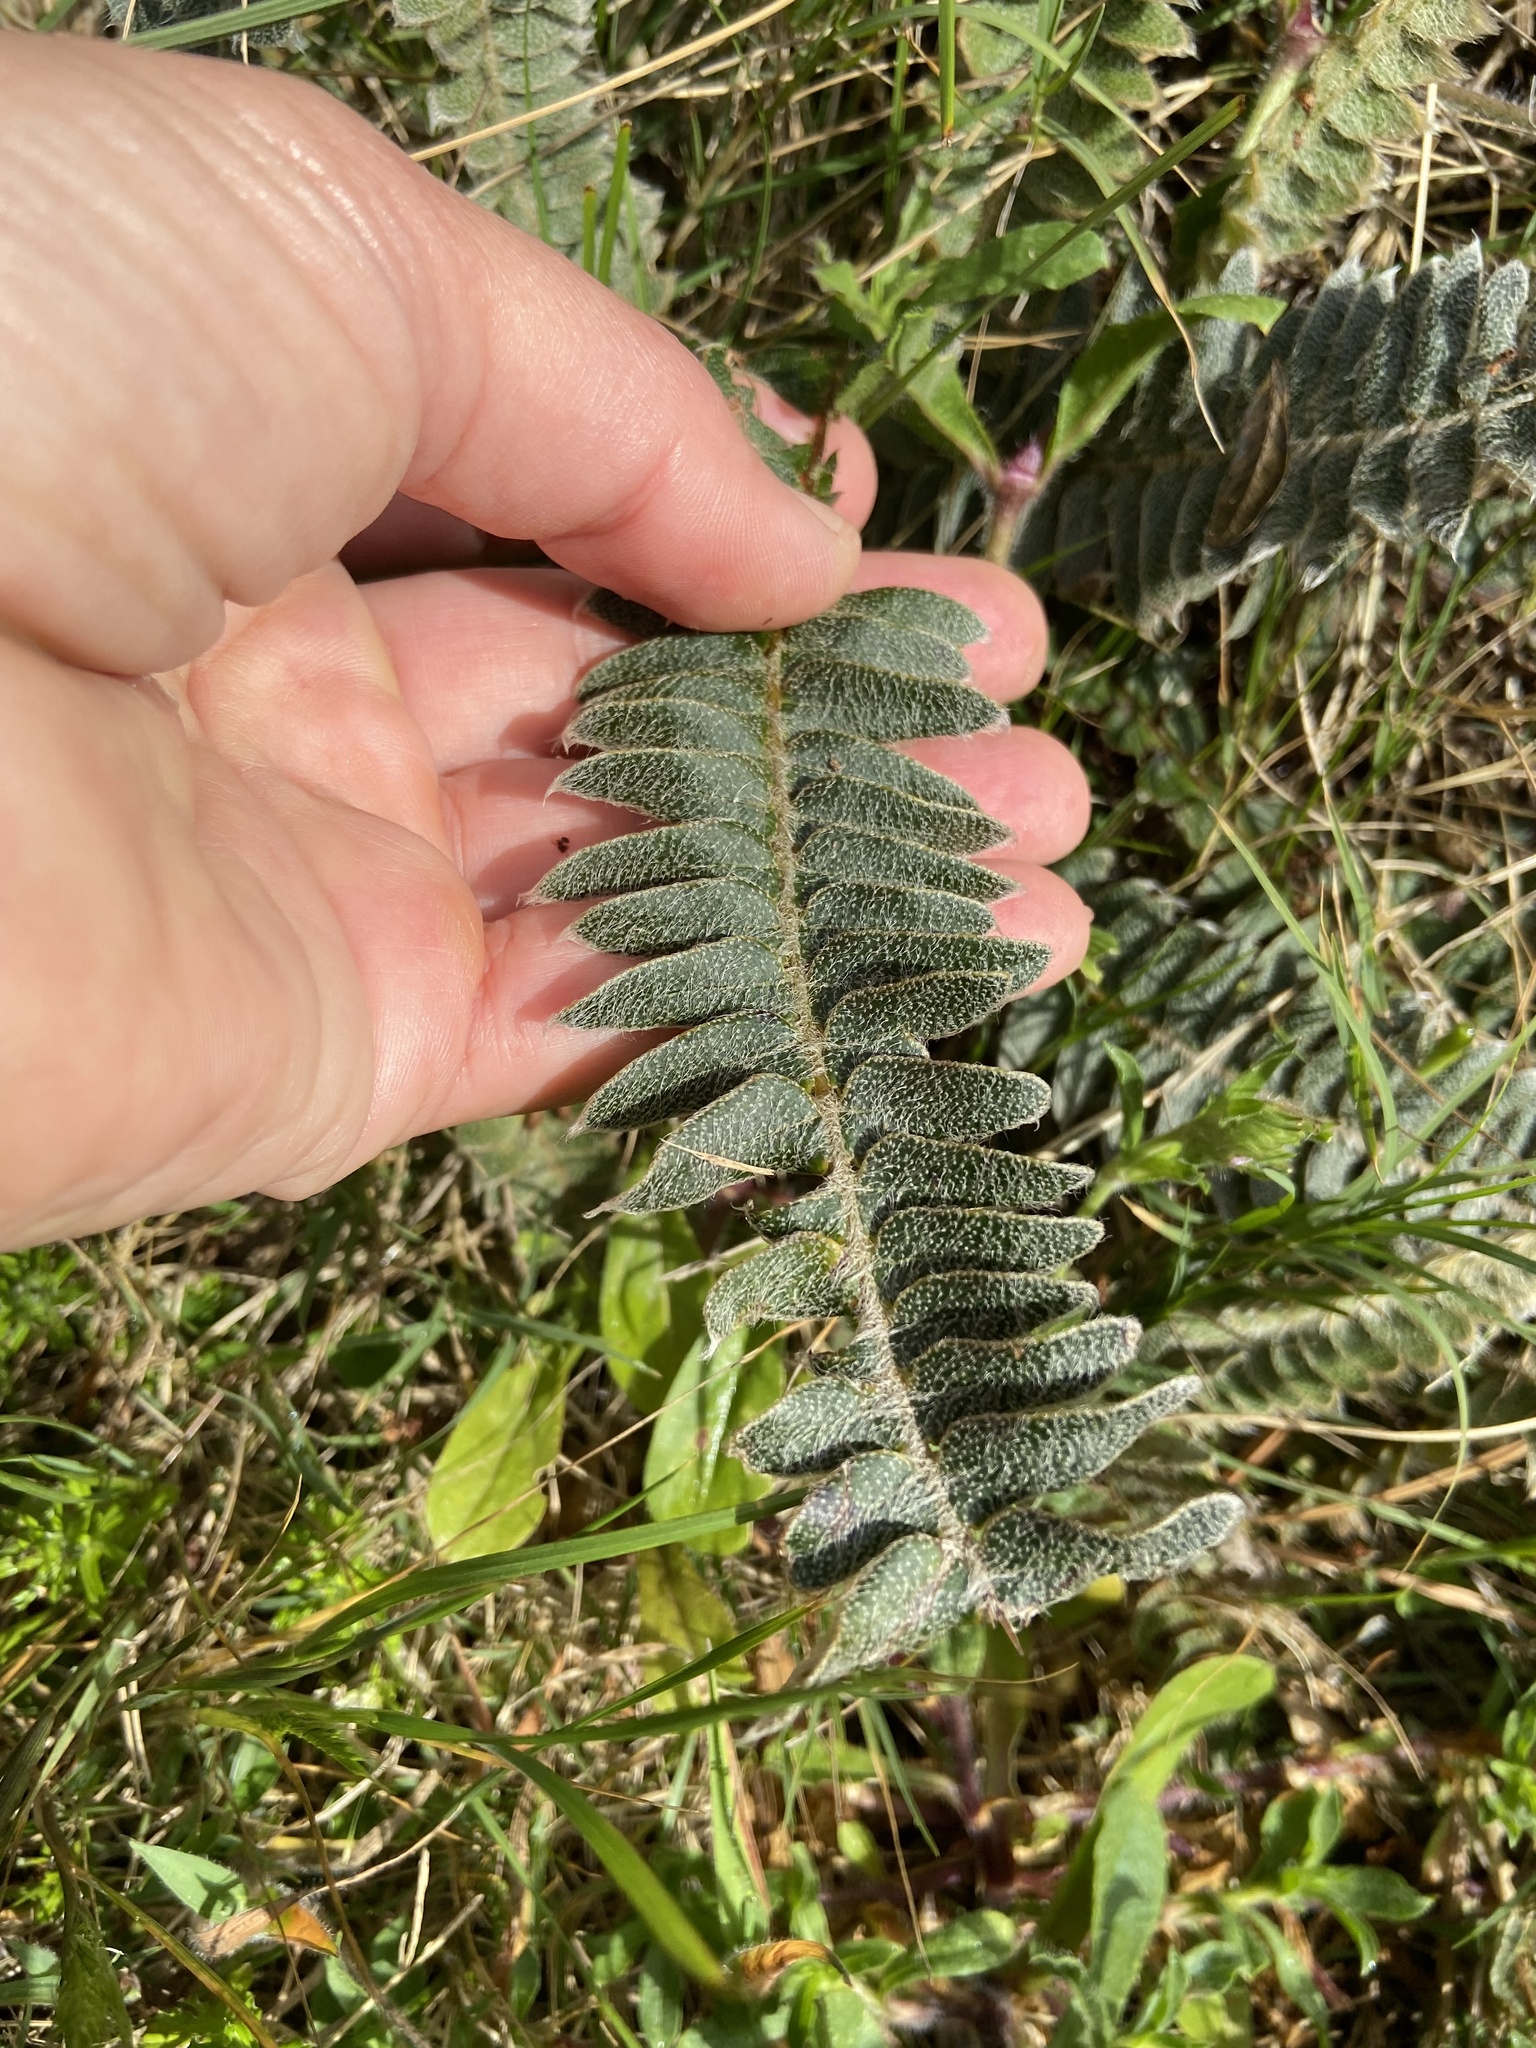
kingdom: Plantae
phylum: Tracheophyta
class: Polypodiopsida
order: Polypodiales
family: Polypodiaceae
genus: Pleopeltis
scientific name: Pleopeltis lepidopteris
